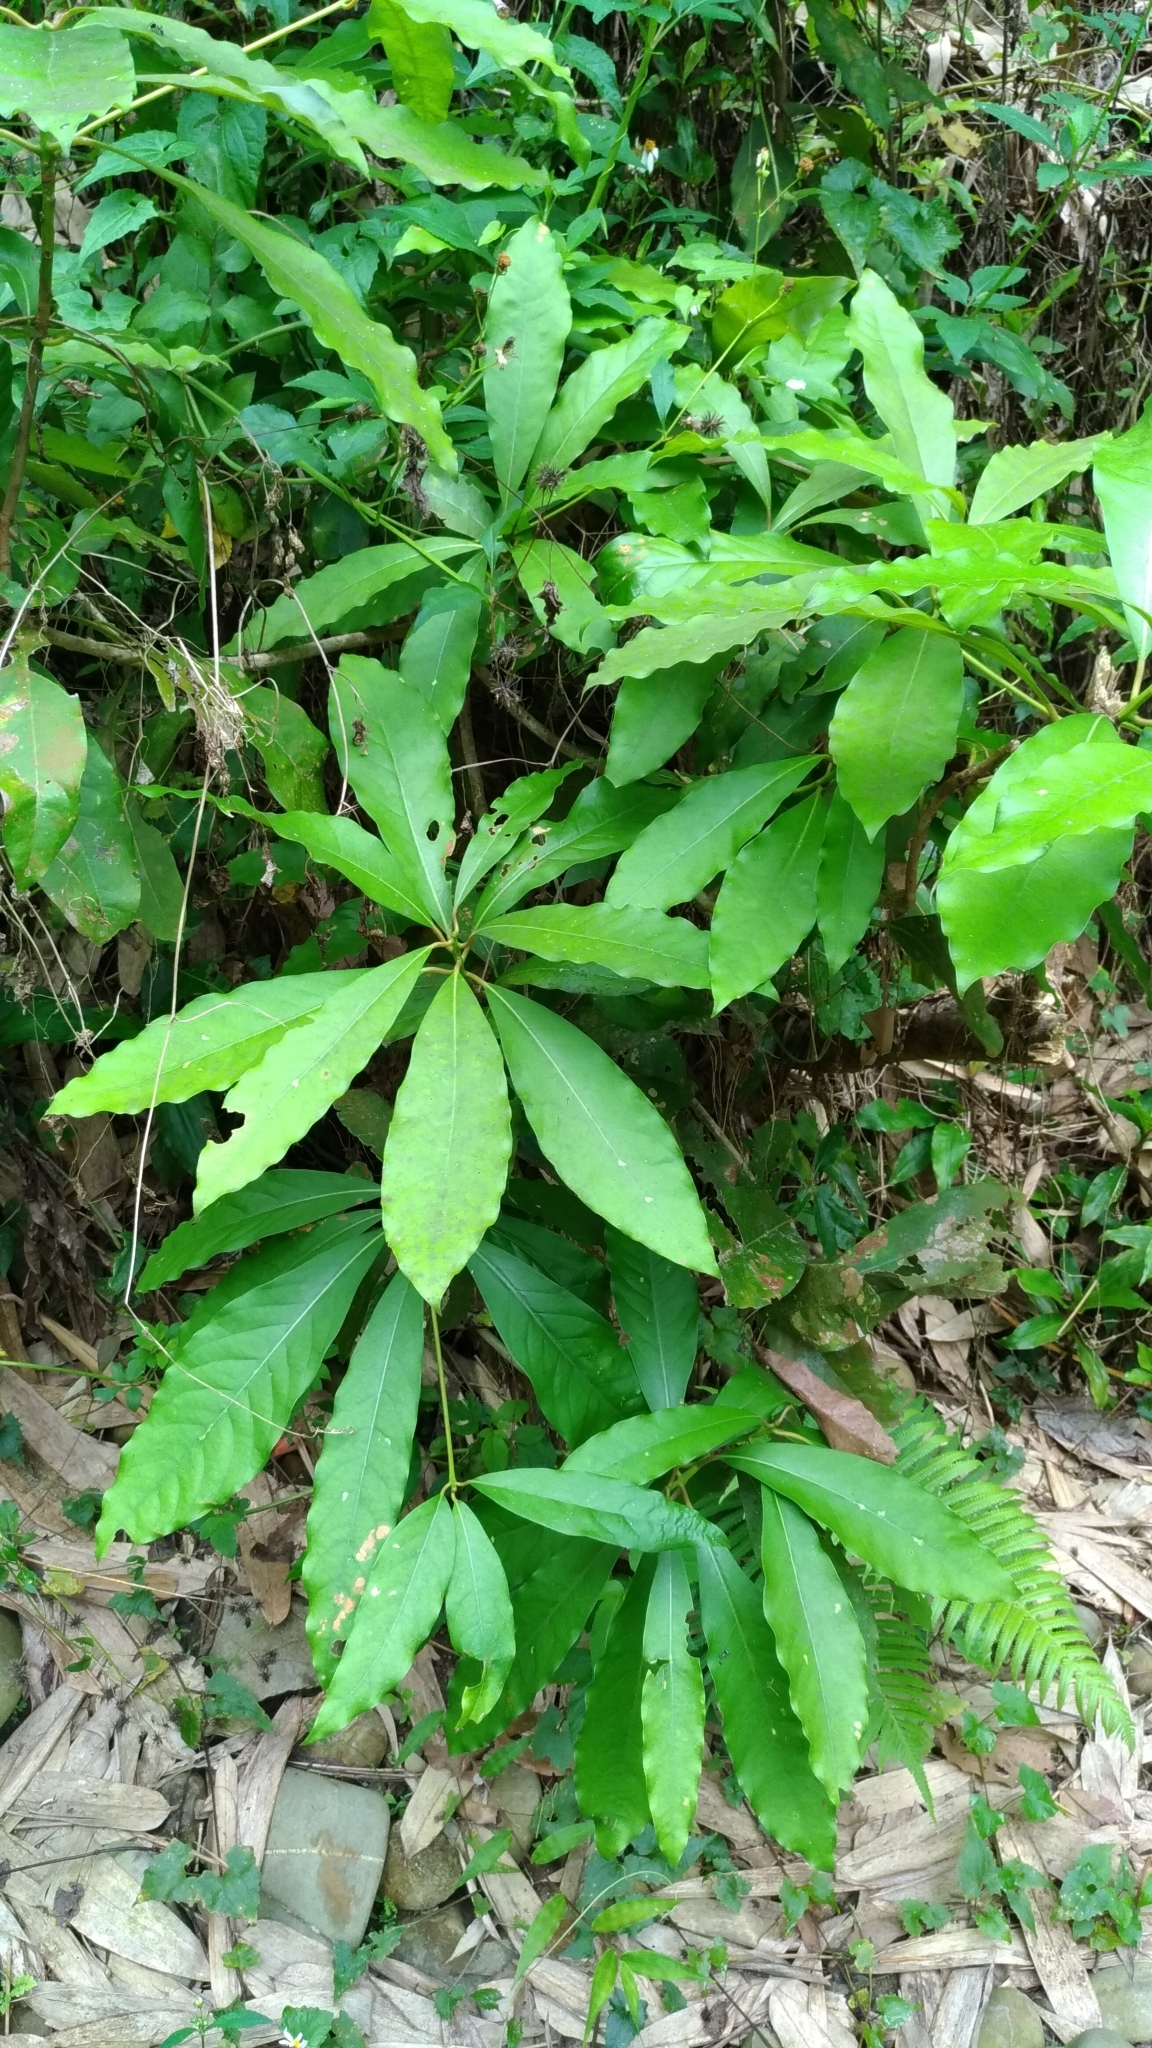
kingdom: Plantae
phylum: Tracheophyta
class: Magnoliopsida
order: Laurales
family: Lauraceae
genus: Machilus
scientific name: Machilus japonica
